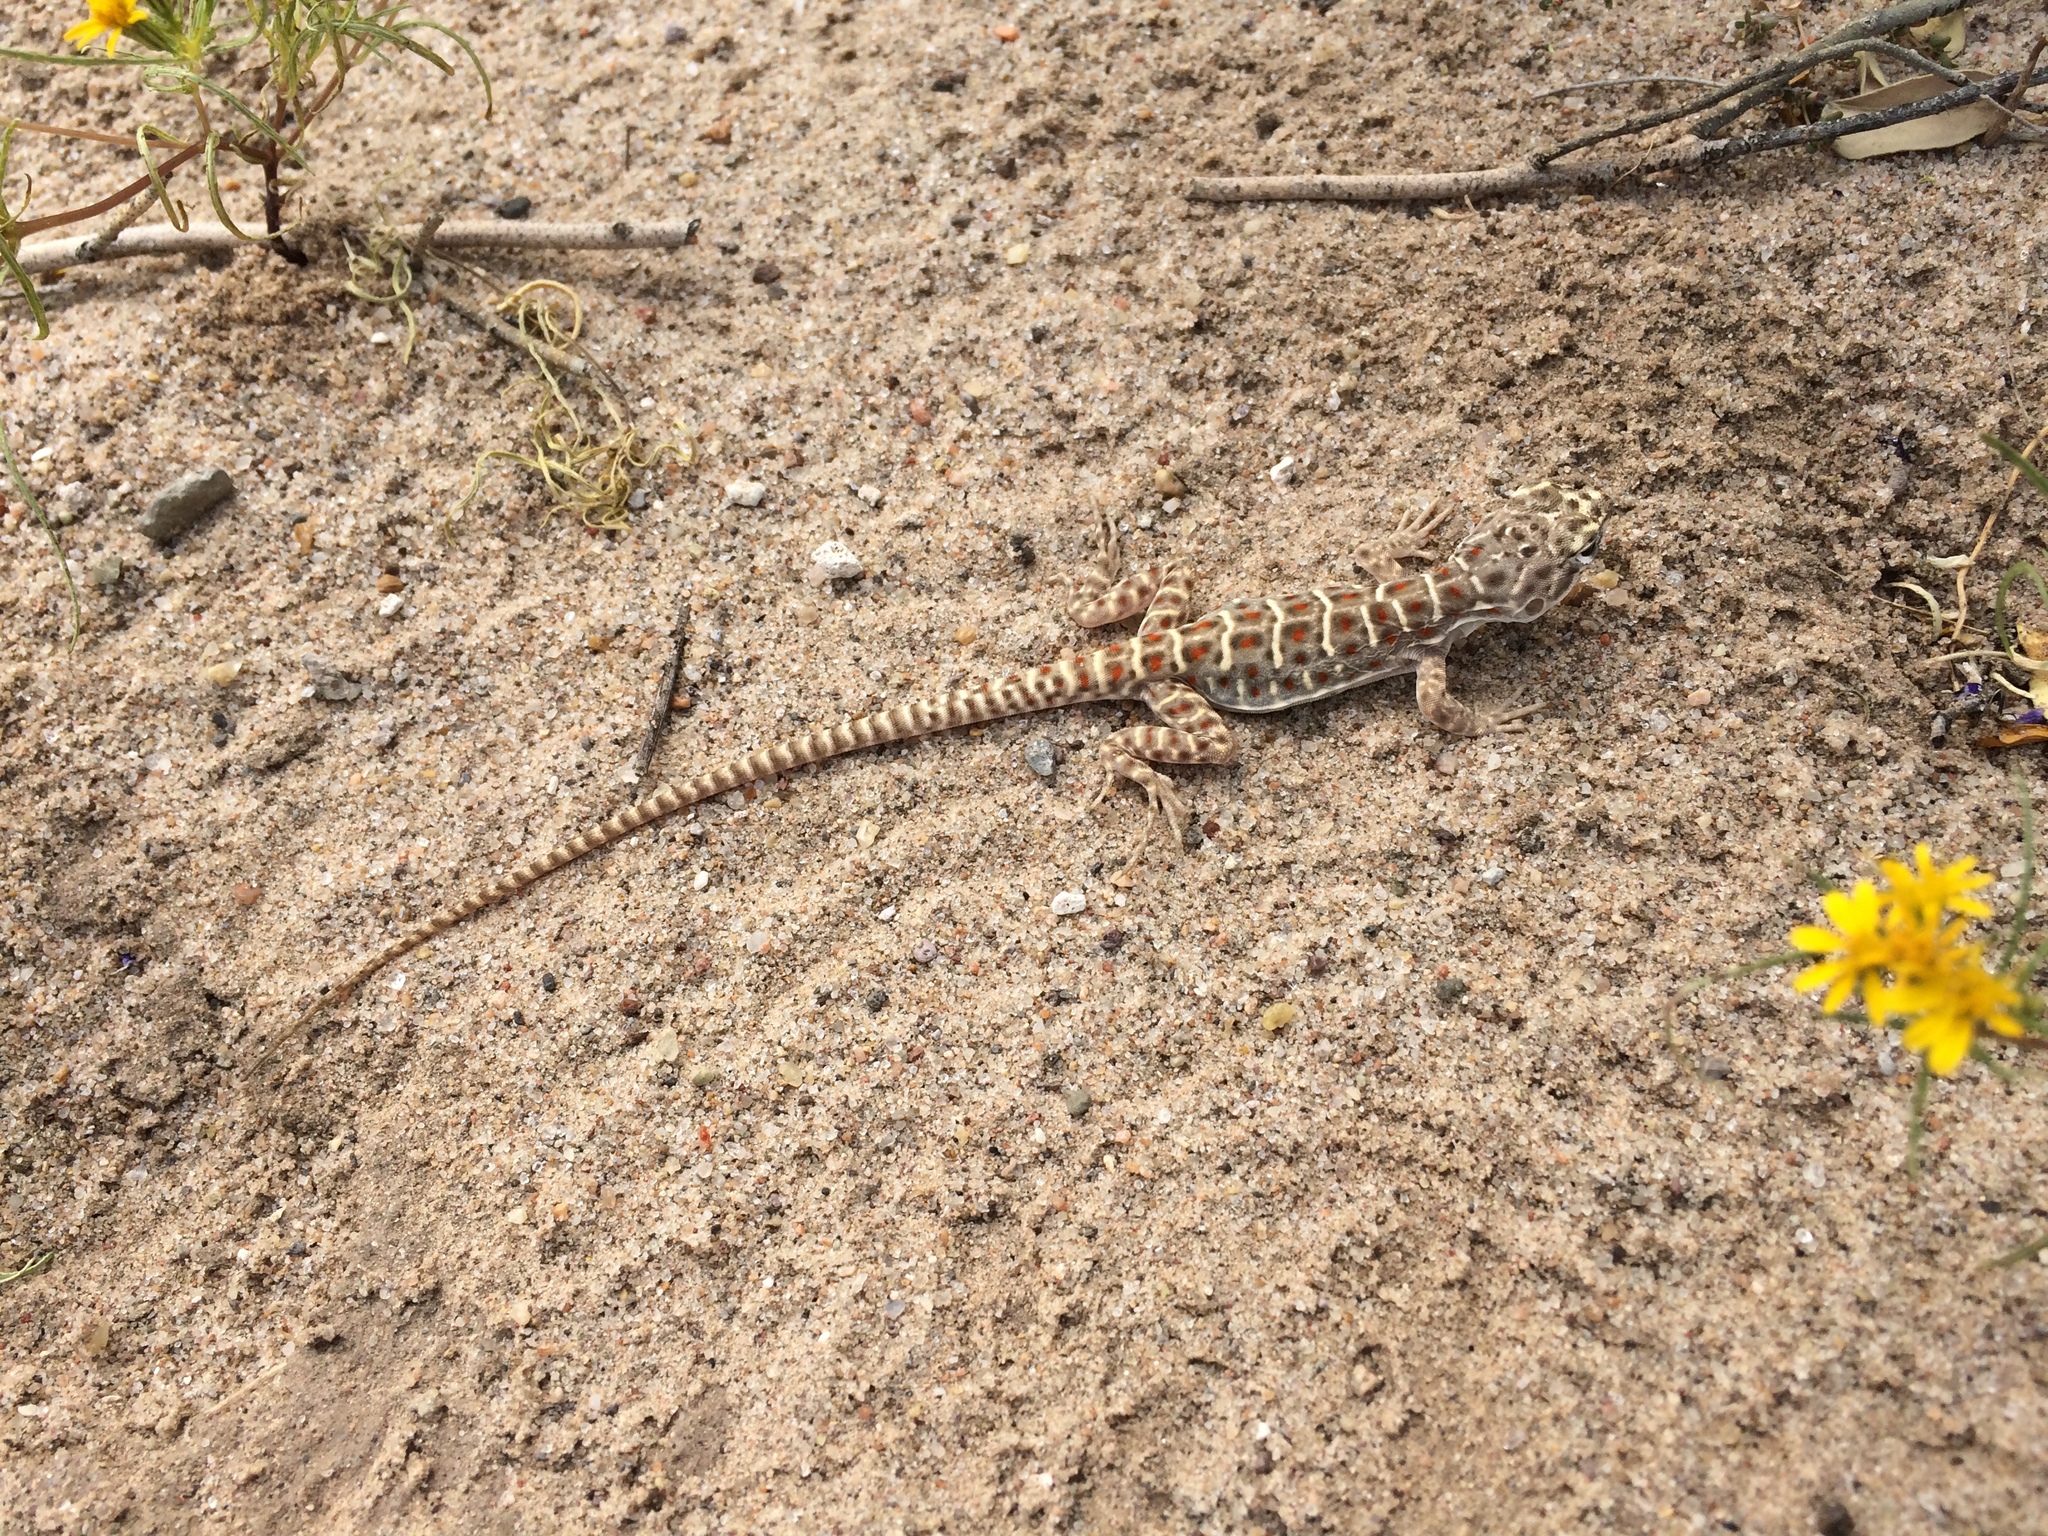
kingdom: Animalia
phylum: Chordata
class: Squamata
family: Crotaphytidae
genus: Gambelia
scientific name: Gambelia wislizenii
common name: Longnose leopard lizard
